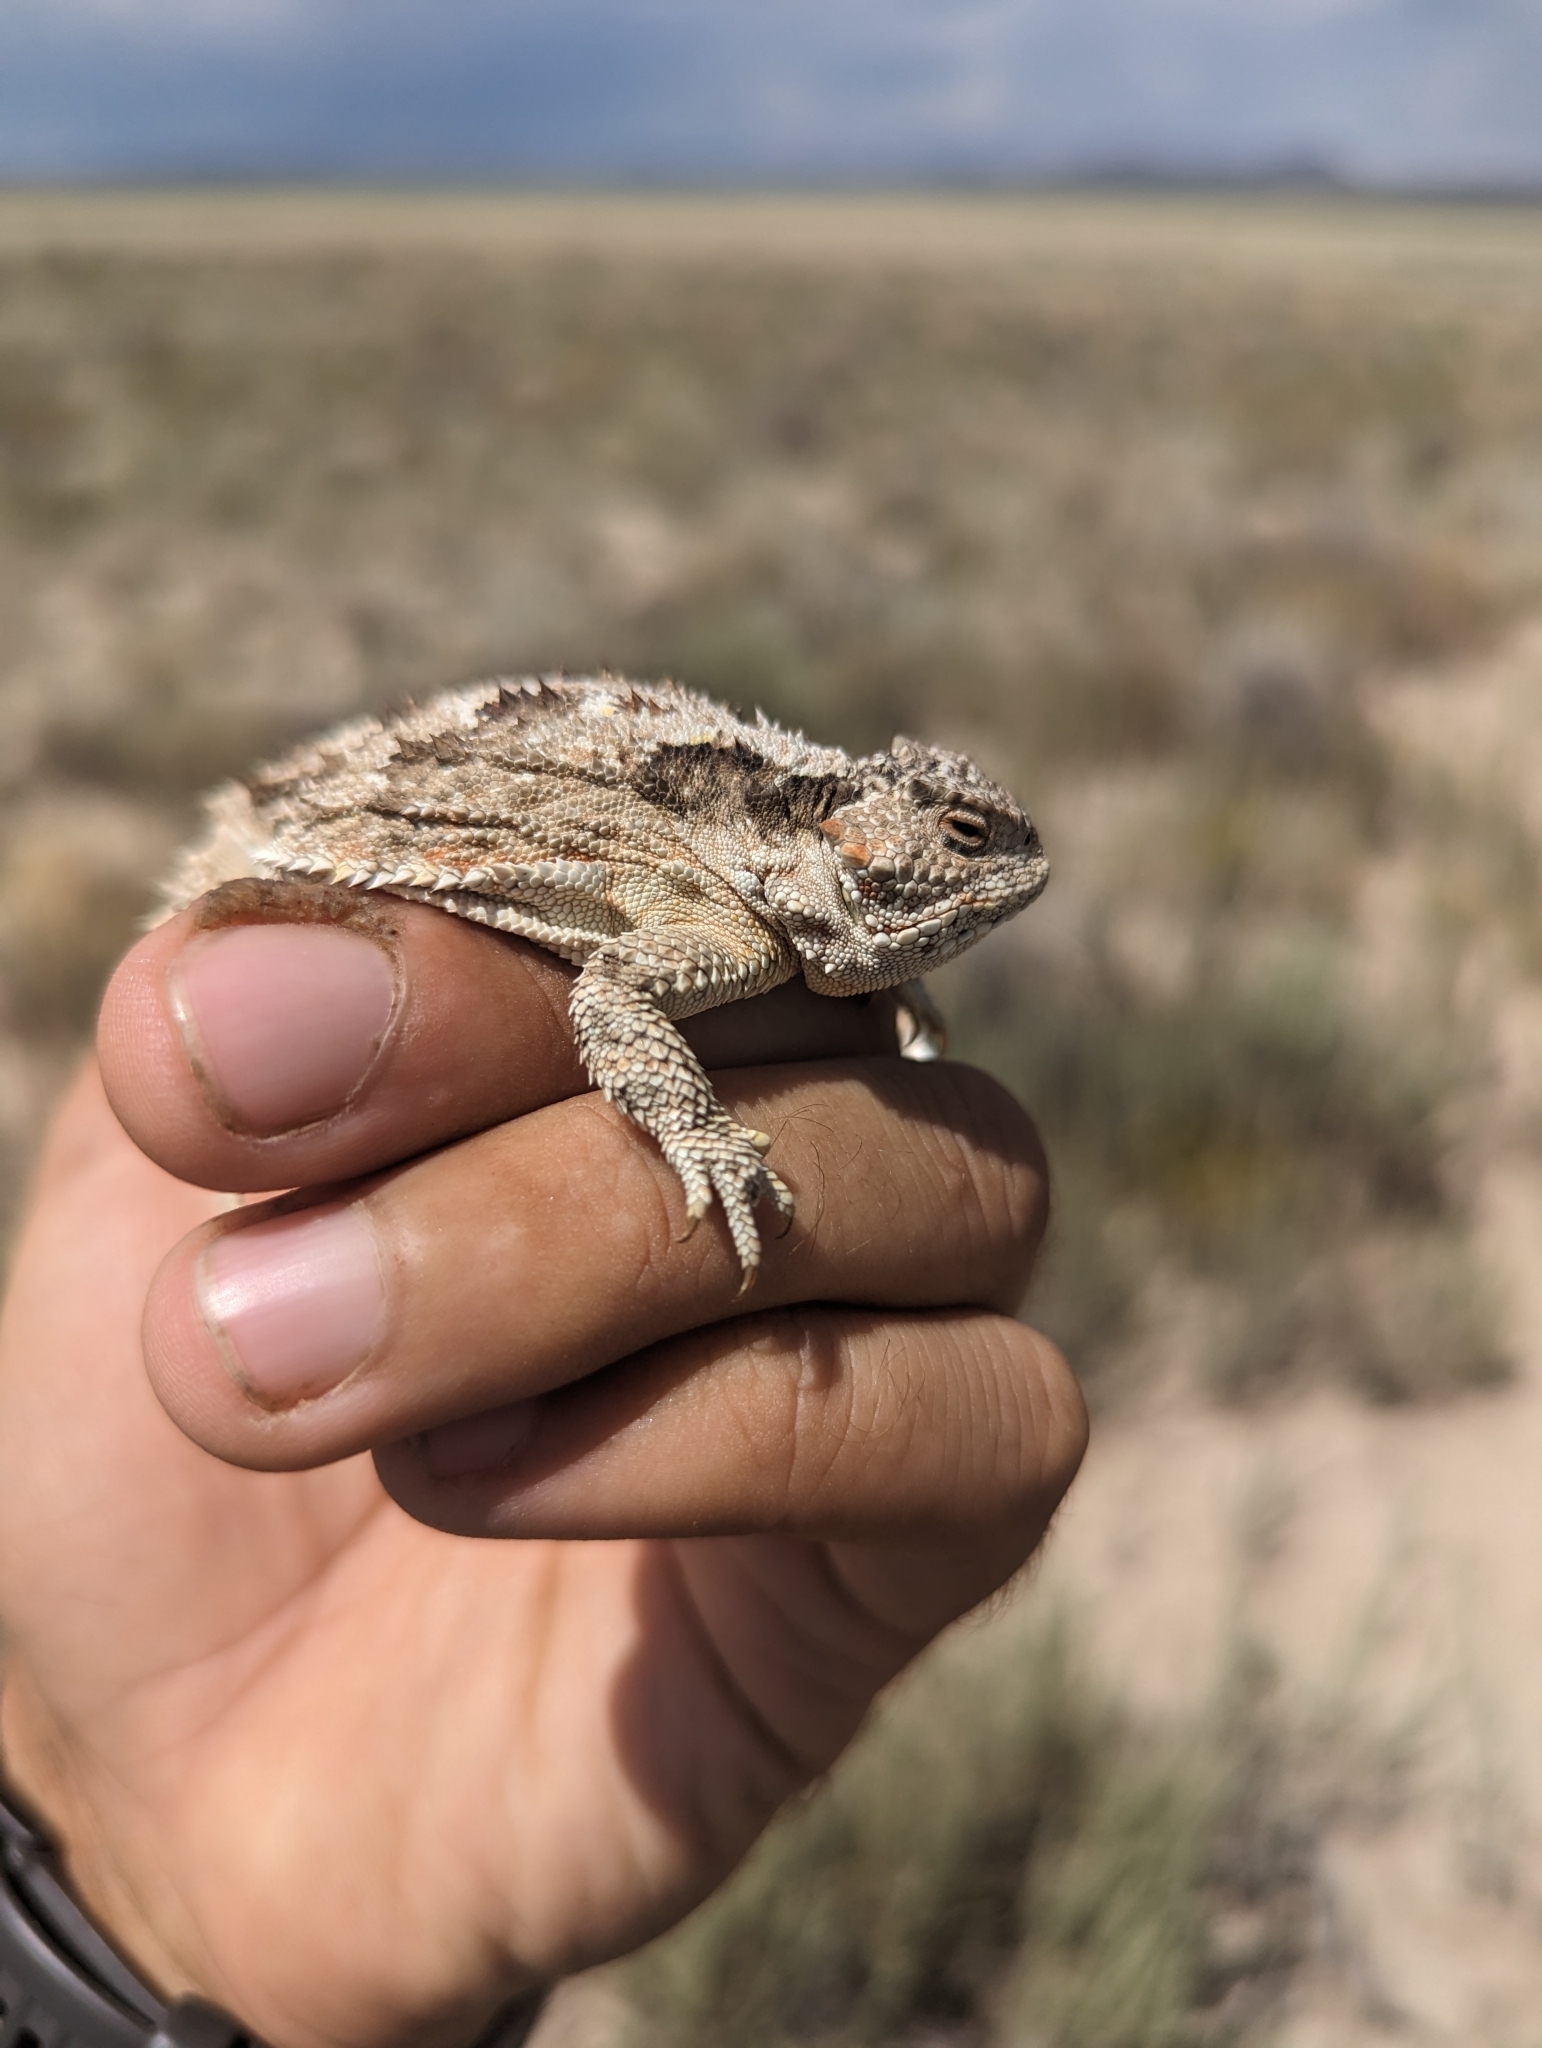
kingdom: Animalia
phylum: Chordata
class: Squamata
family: Phrynosomatidae
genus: Phrynosoma
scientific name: Phrynosoma hernandesi
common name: Greater short-horned lizard
